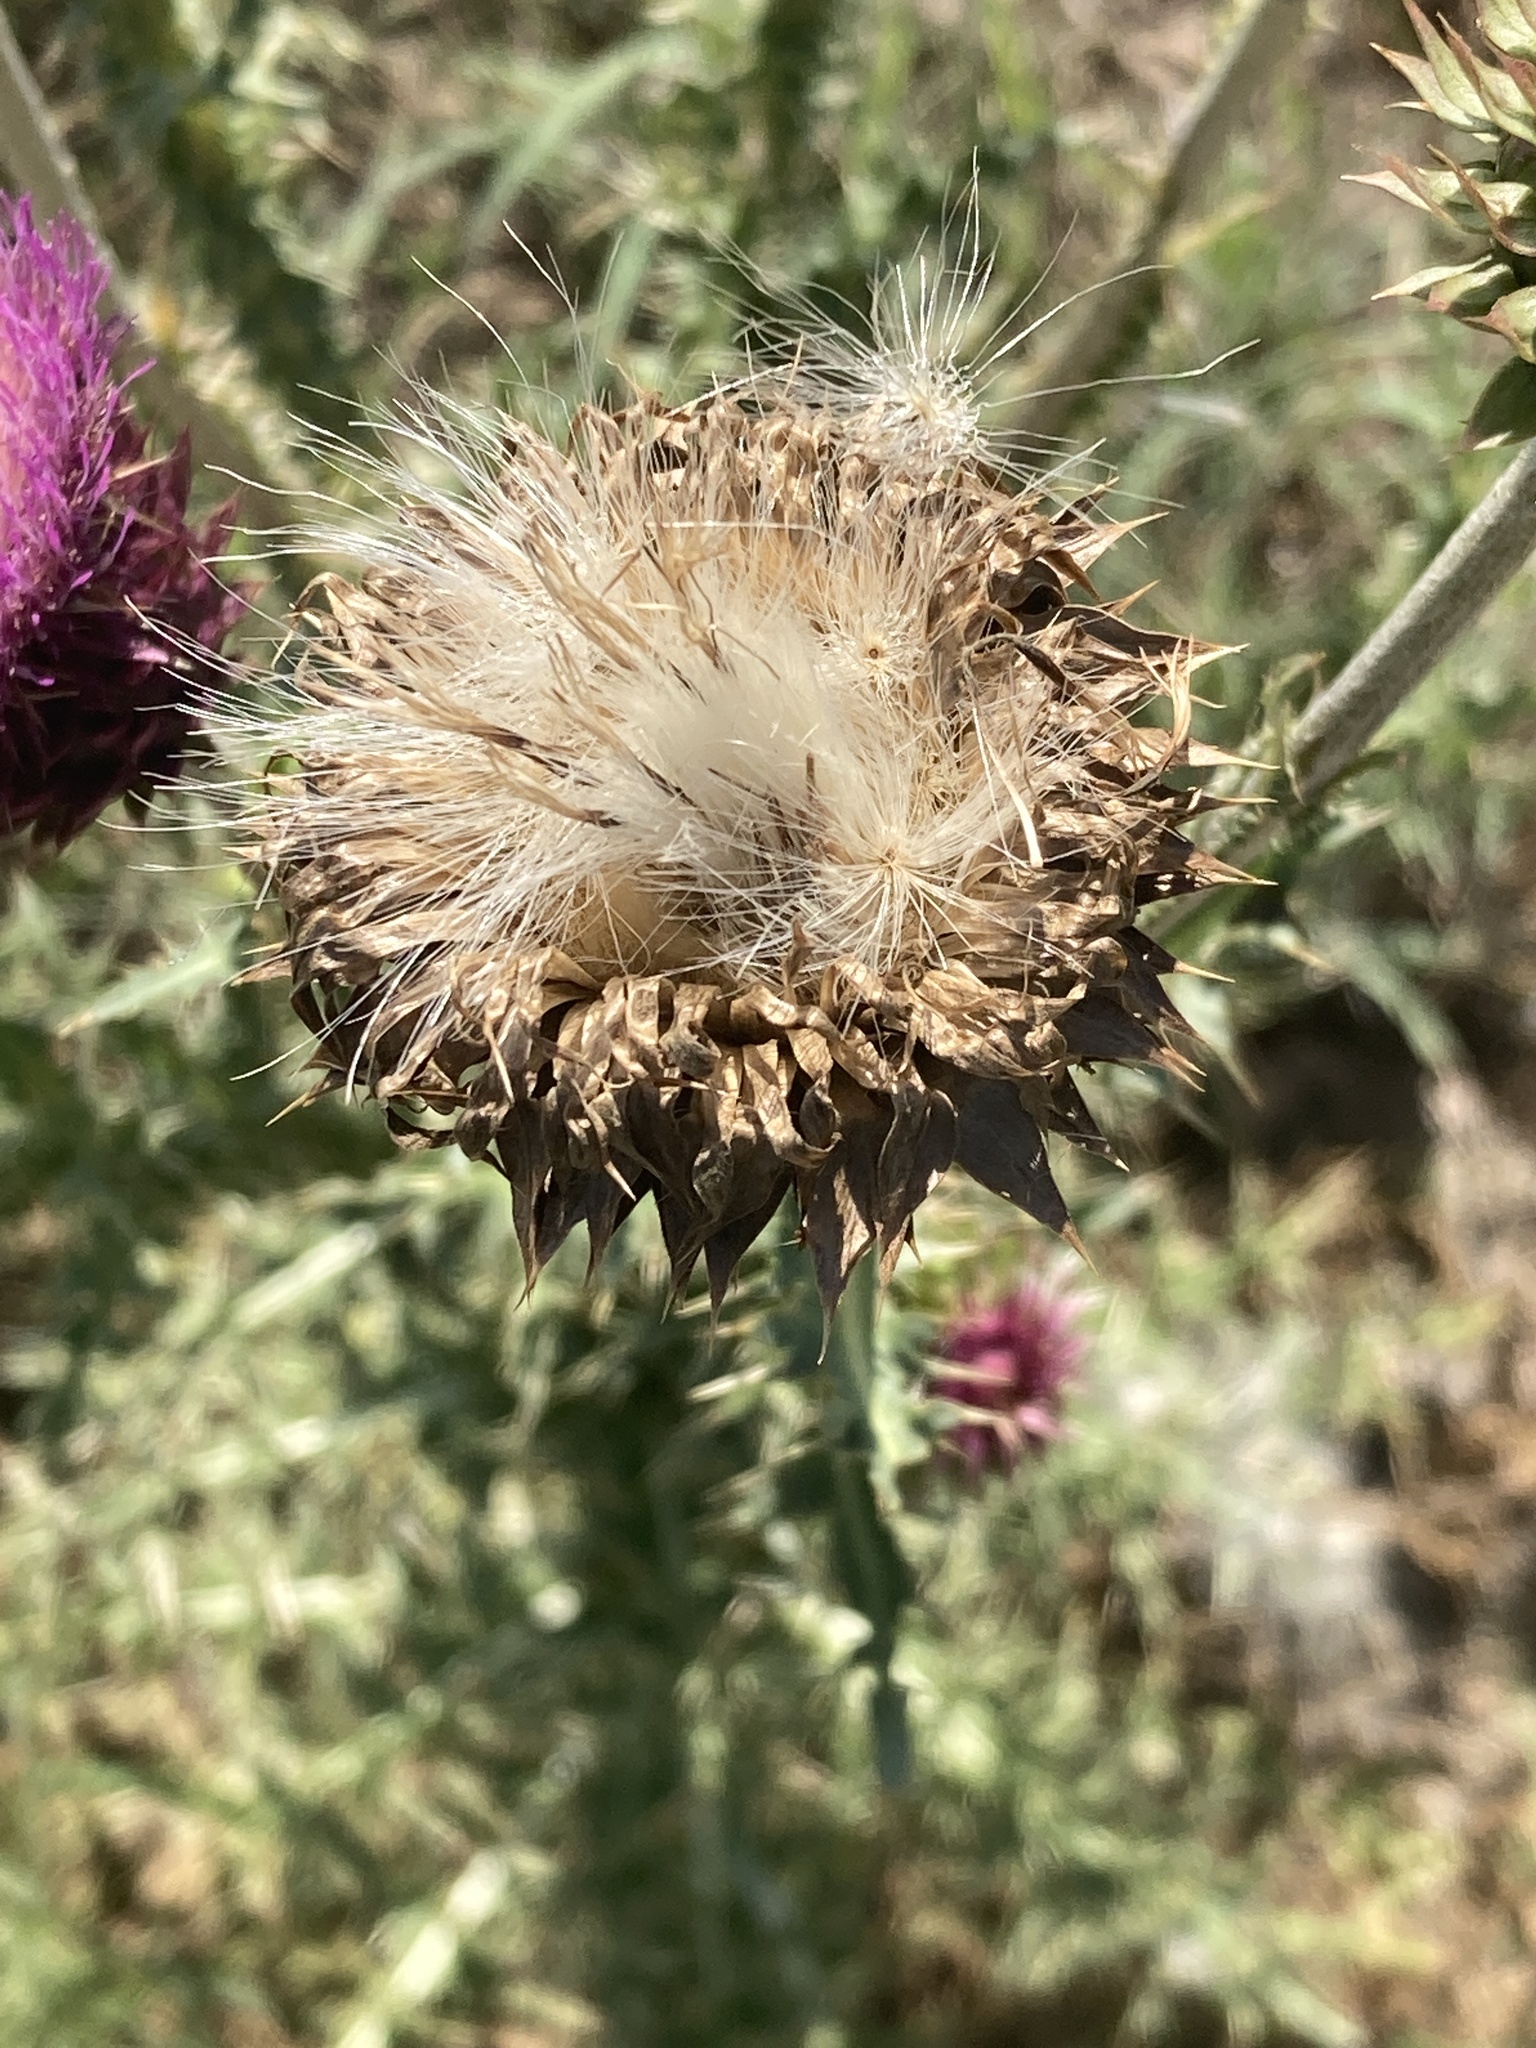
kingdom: Plantae
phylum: Tracheophyta
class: Magnoliopsida
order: Asterales
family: Asteraceae
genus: Carduus
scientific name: Carduus nutans
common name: Musk thistle
